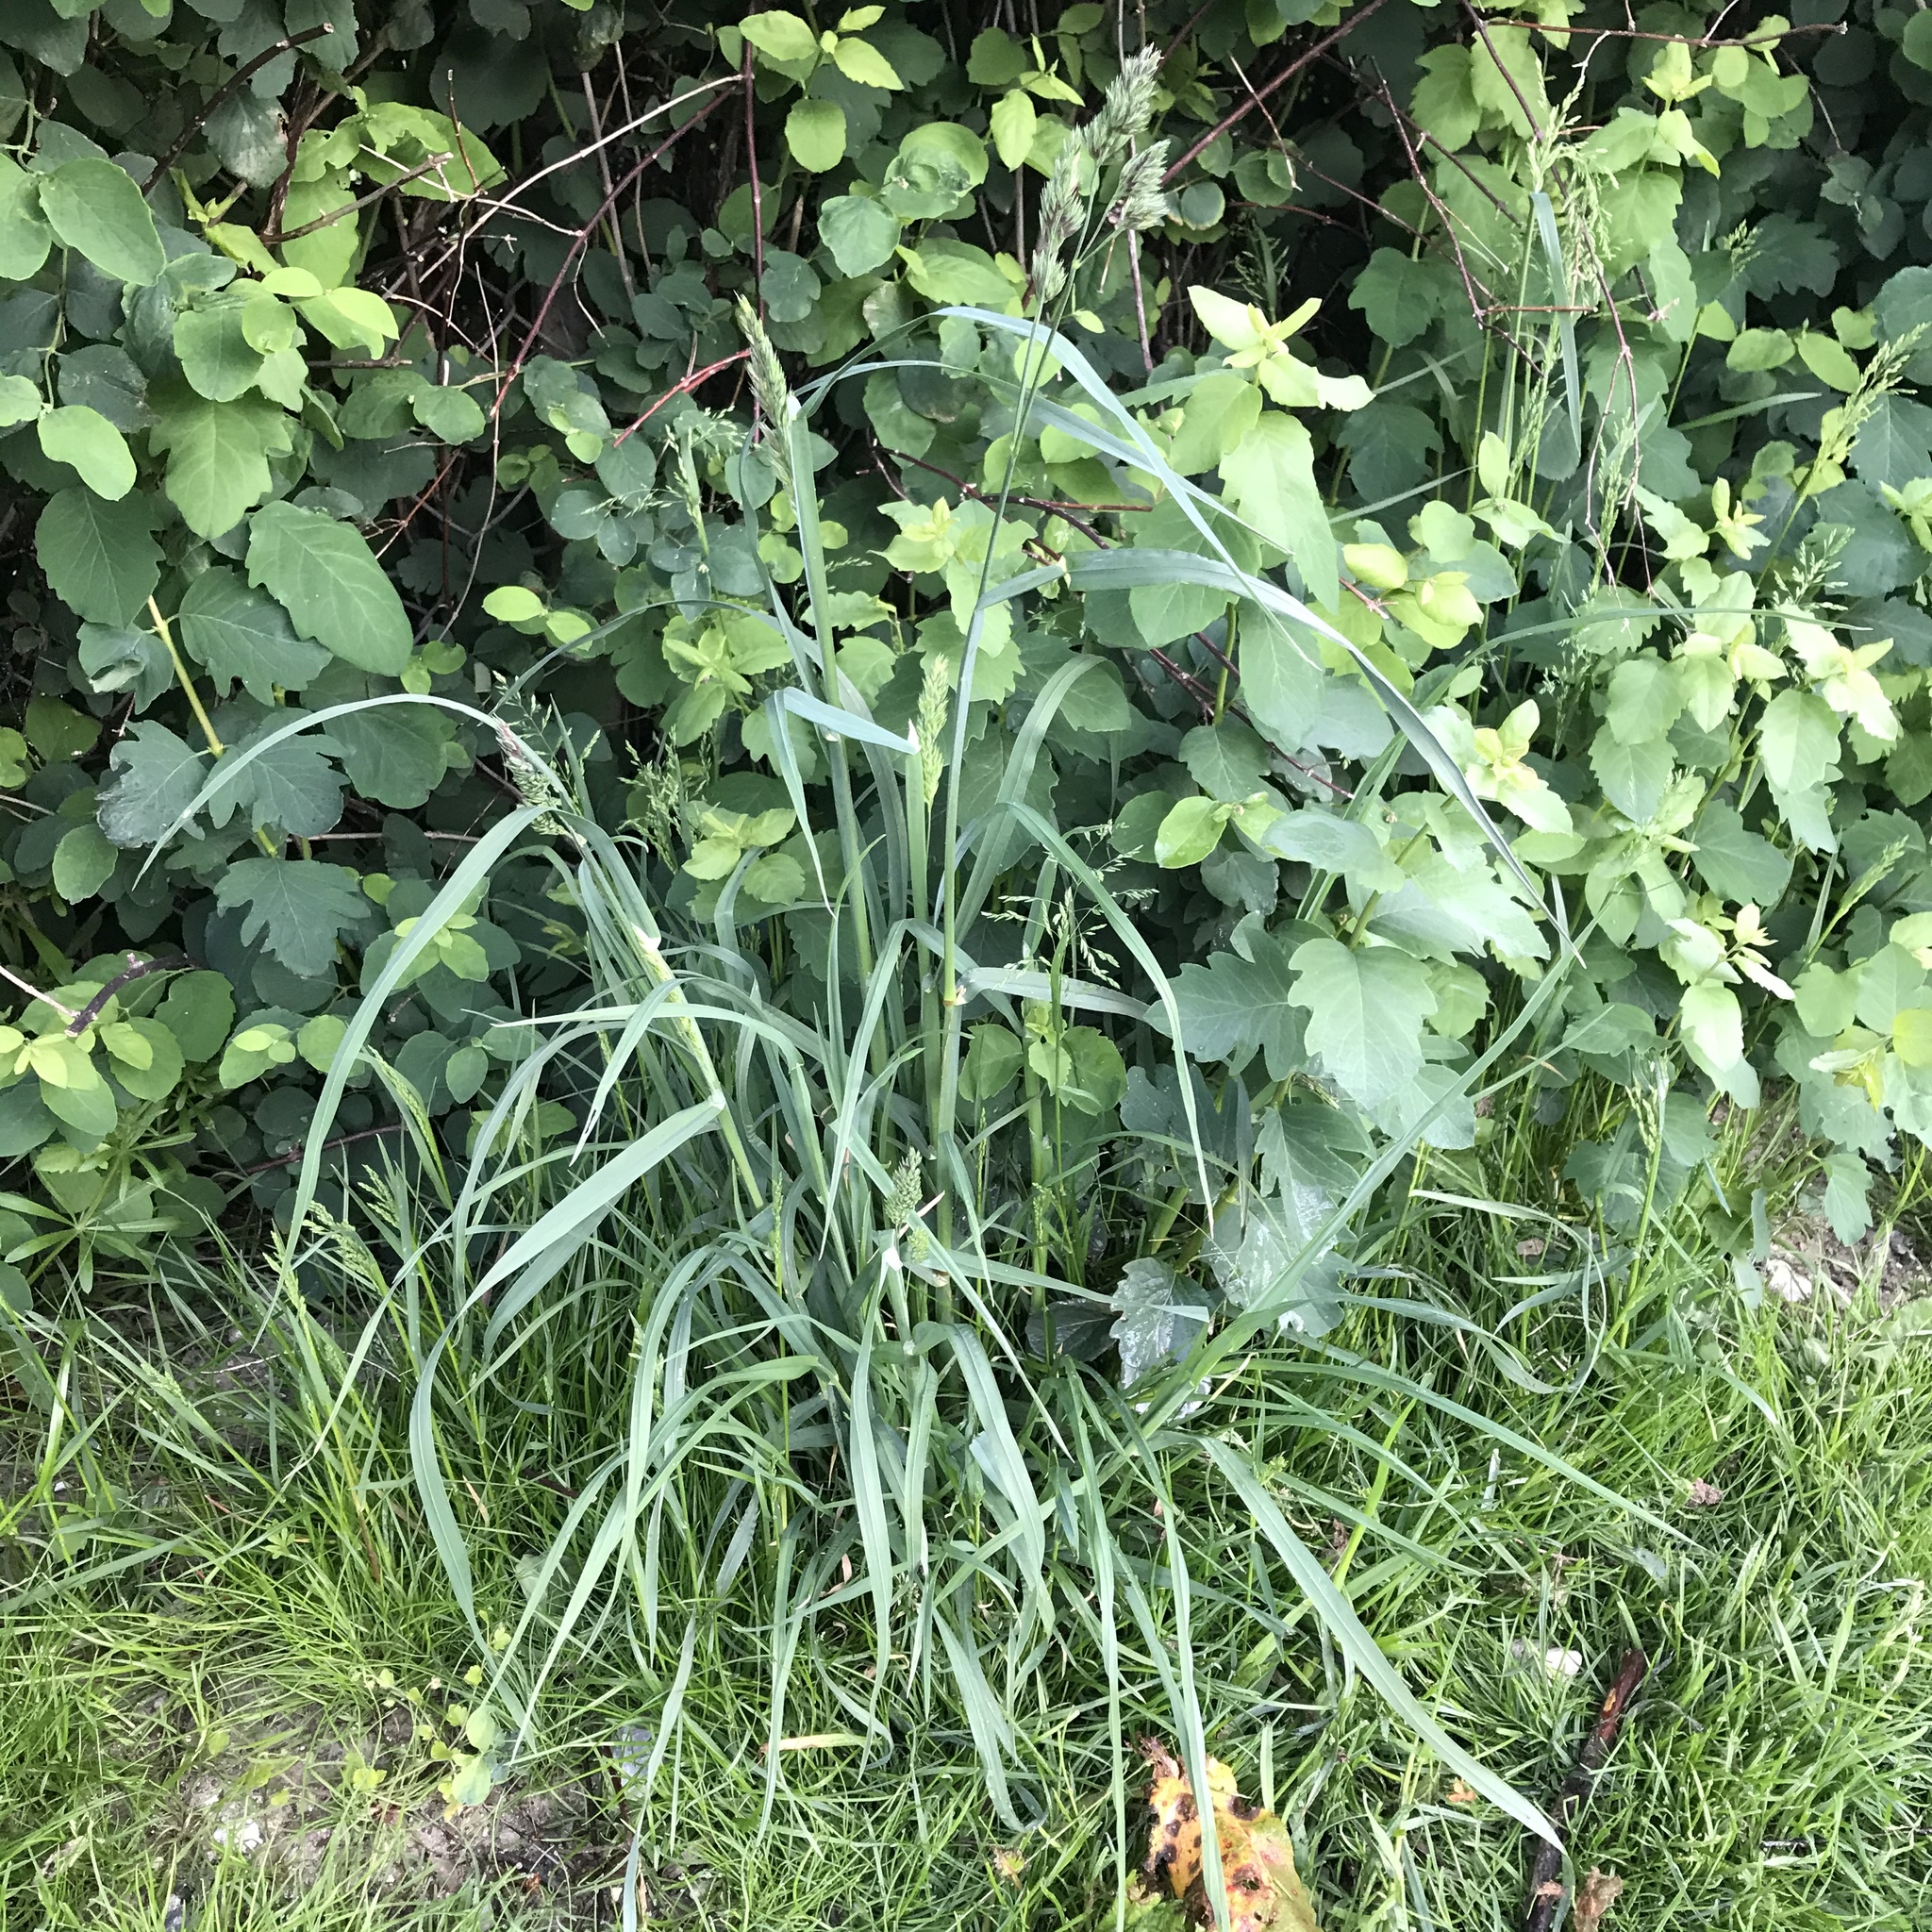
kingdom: Plantae
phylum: Tracheophyta
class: Liliopsida
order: Poales
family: Poaceae
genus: Dactylis
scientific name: Dactylis glomerata
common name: Orchardgrass
